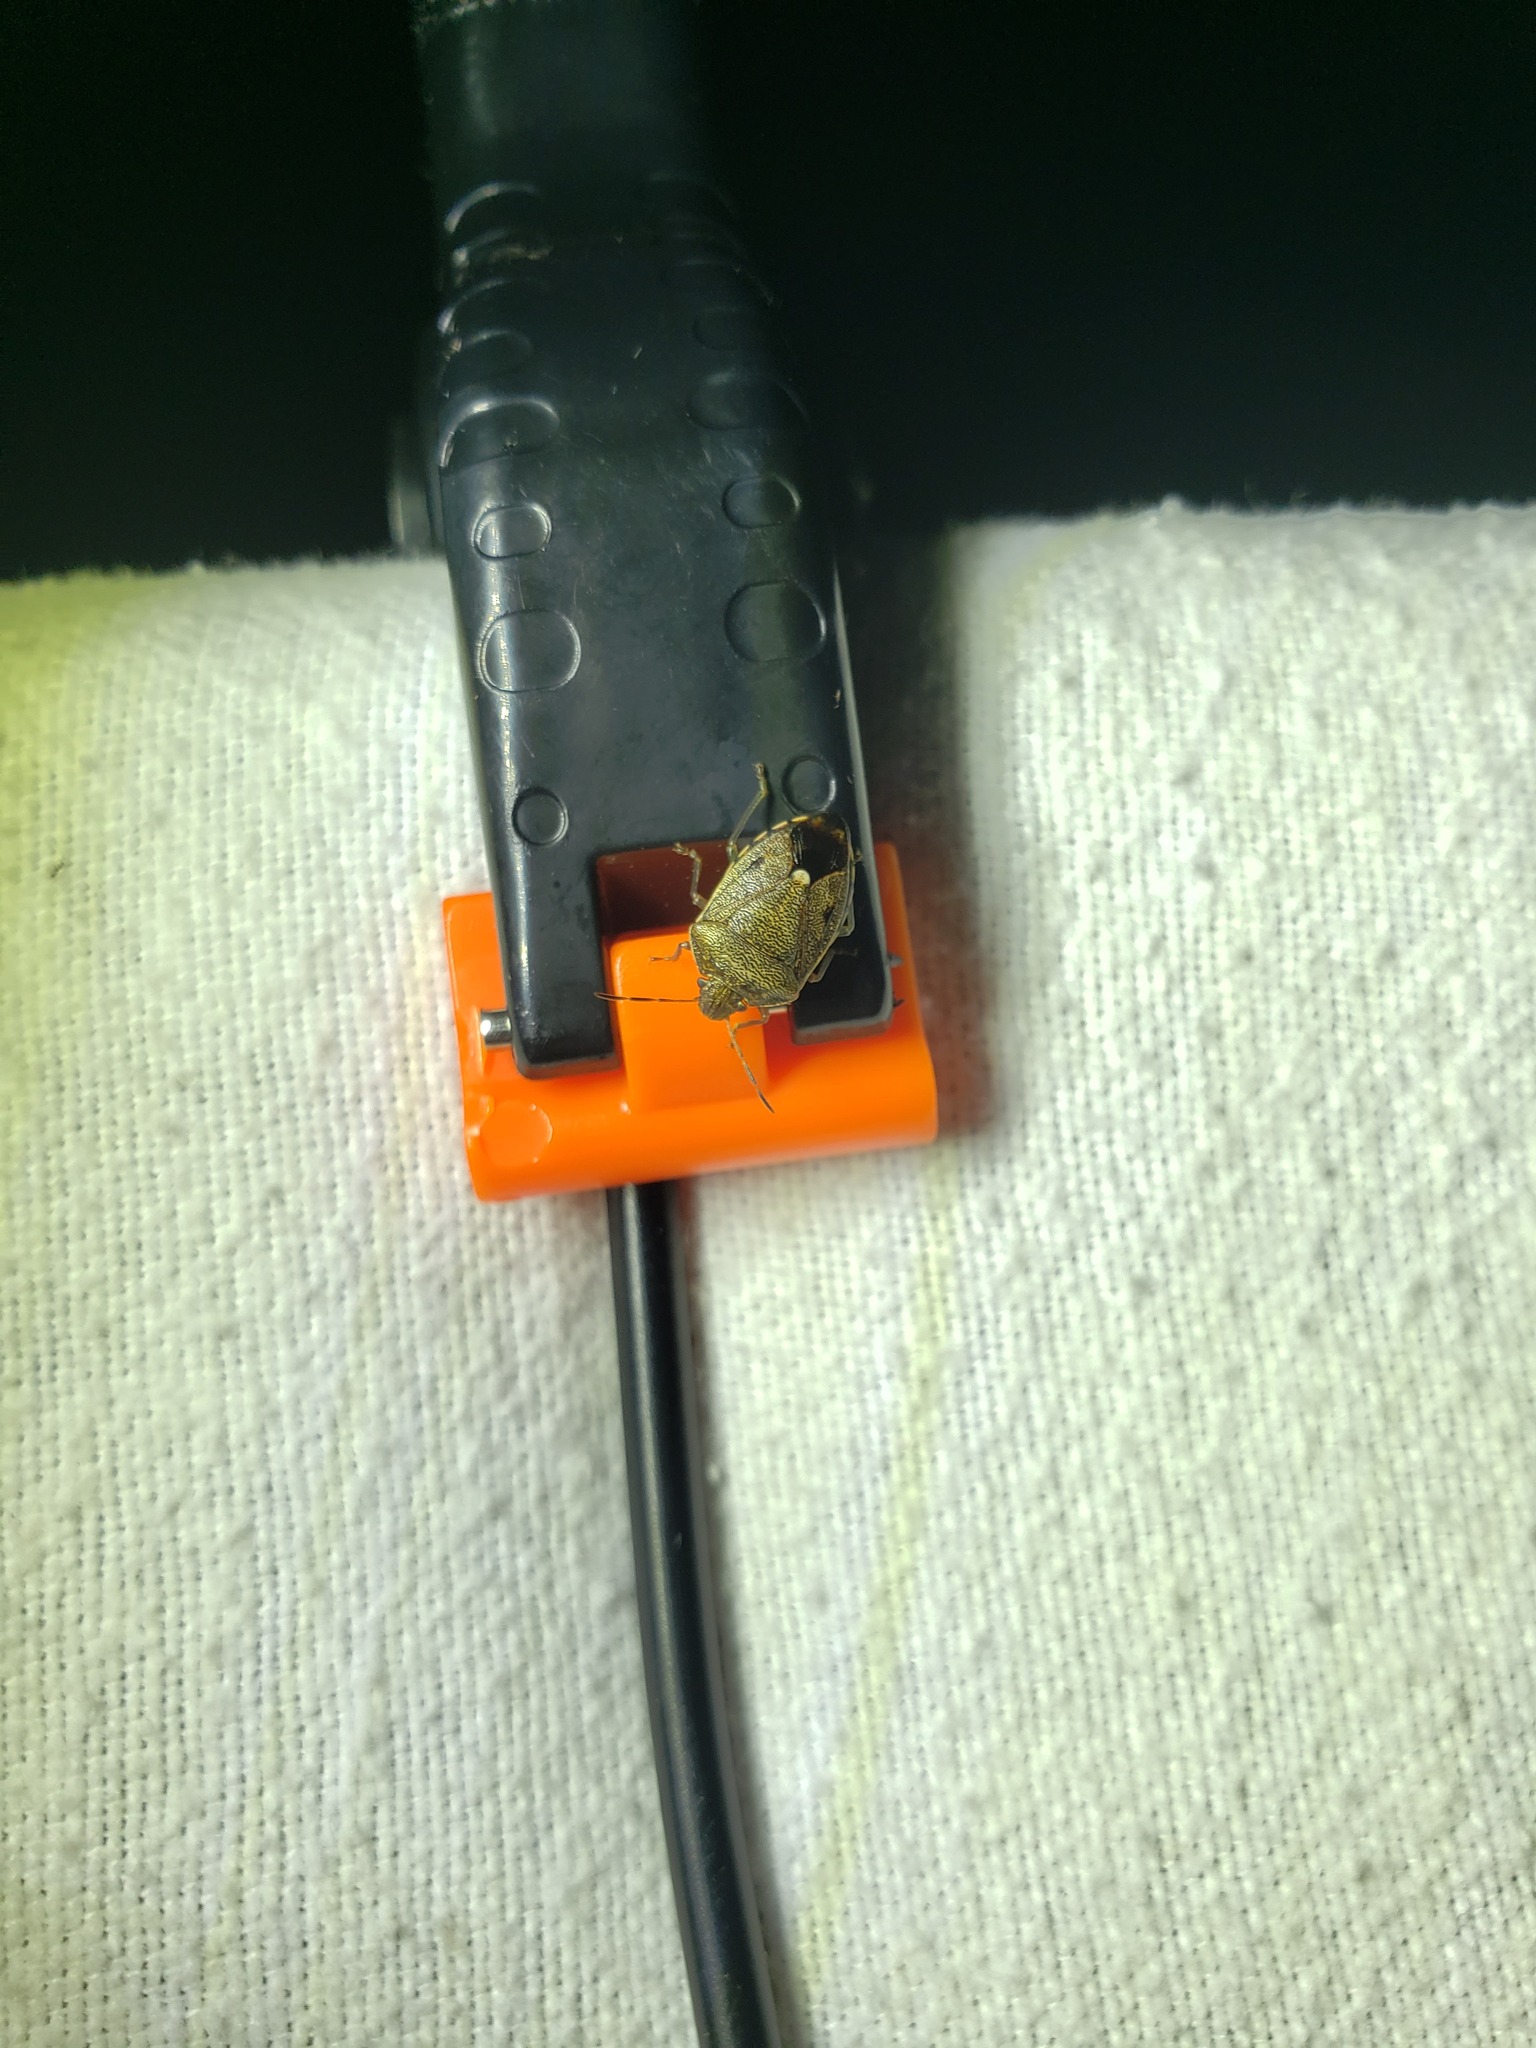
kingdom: Animalia
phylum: Arthropoda
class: Insecta
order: Hemiptera
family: Pentatomidae
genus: Banasa
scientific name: Banasa sordida
